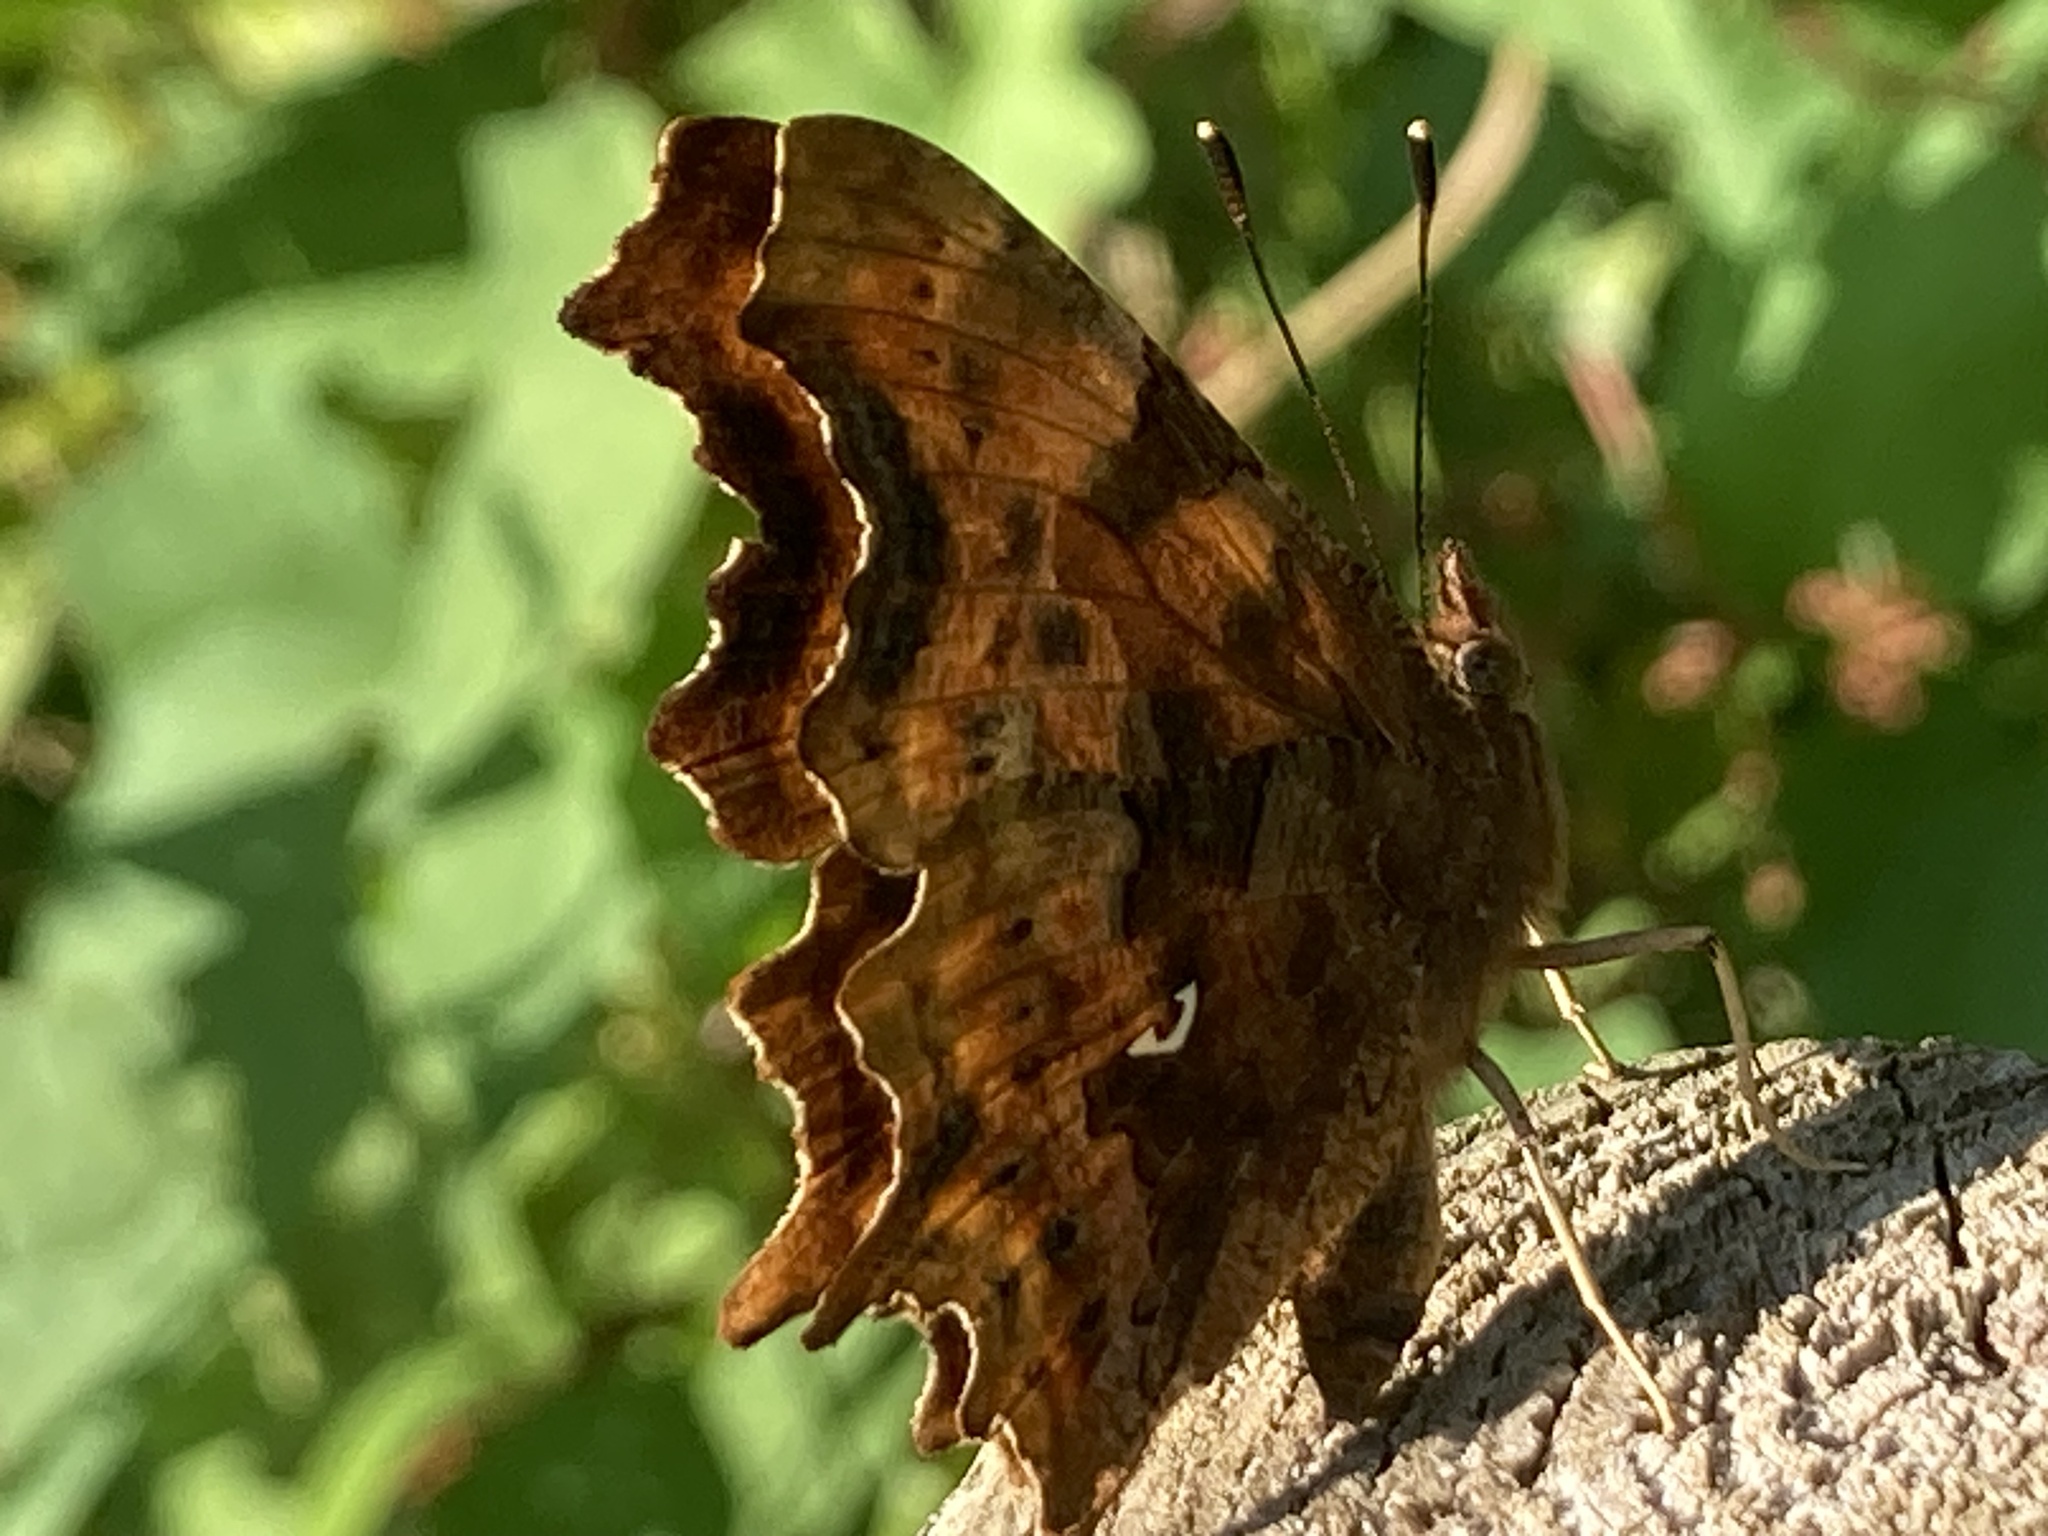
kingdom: Animalia
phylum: Arthropoda
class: Insecta
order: Lepidoptera
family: Nymphalidae
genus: Polygonia
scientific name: Polygonia c-album
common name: Comma
